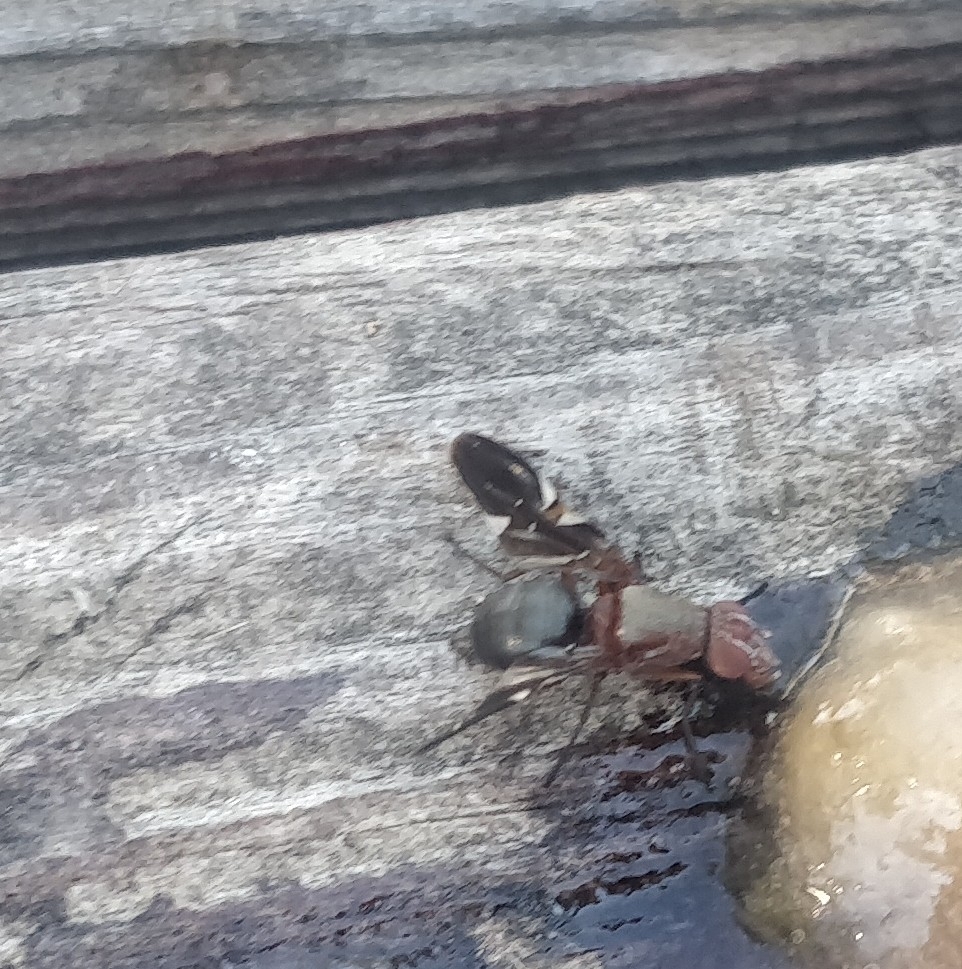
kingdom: Animalia
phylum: Arthropoda
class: Insecta
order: Diptera
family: Ulidiidae
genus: Delphinia
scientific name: Delphinia picta
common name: Common picture-winged fly
